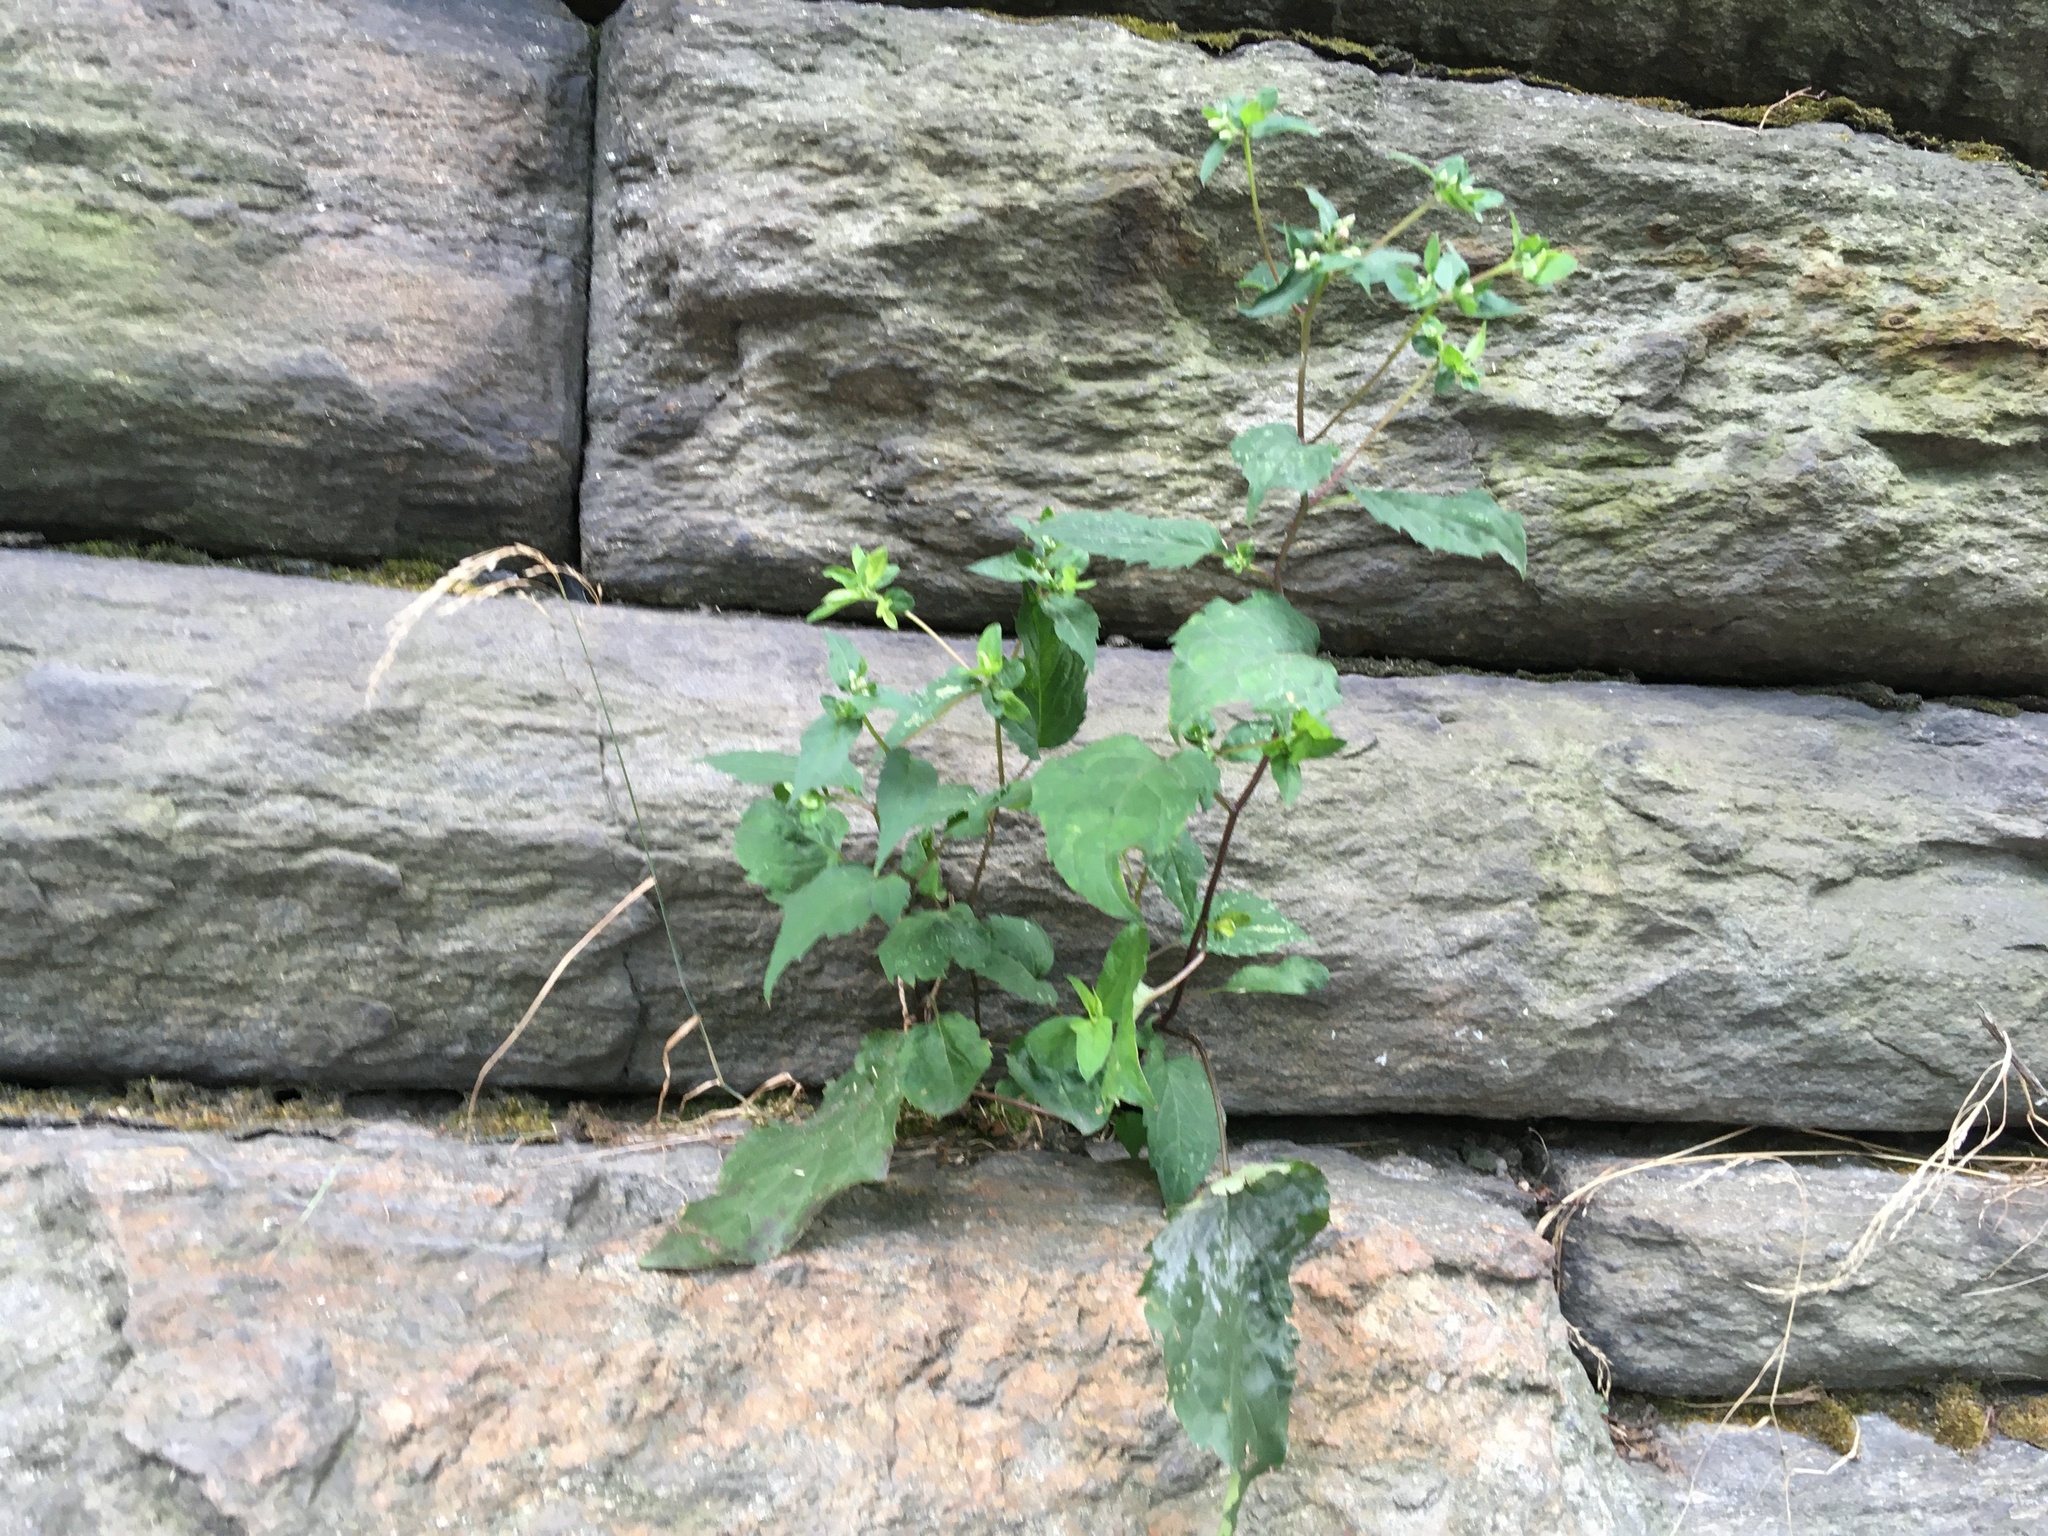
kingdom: Plantae
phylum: Tracheophyta
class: Magnoliopsida
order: Asterales
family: Asteraceae
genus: Eurybia
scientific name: Eurybia divaricata
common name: White wood aster
